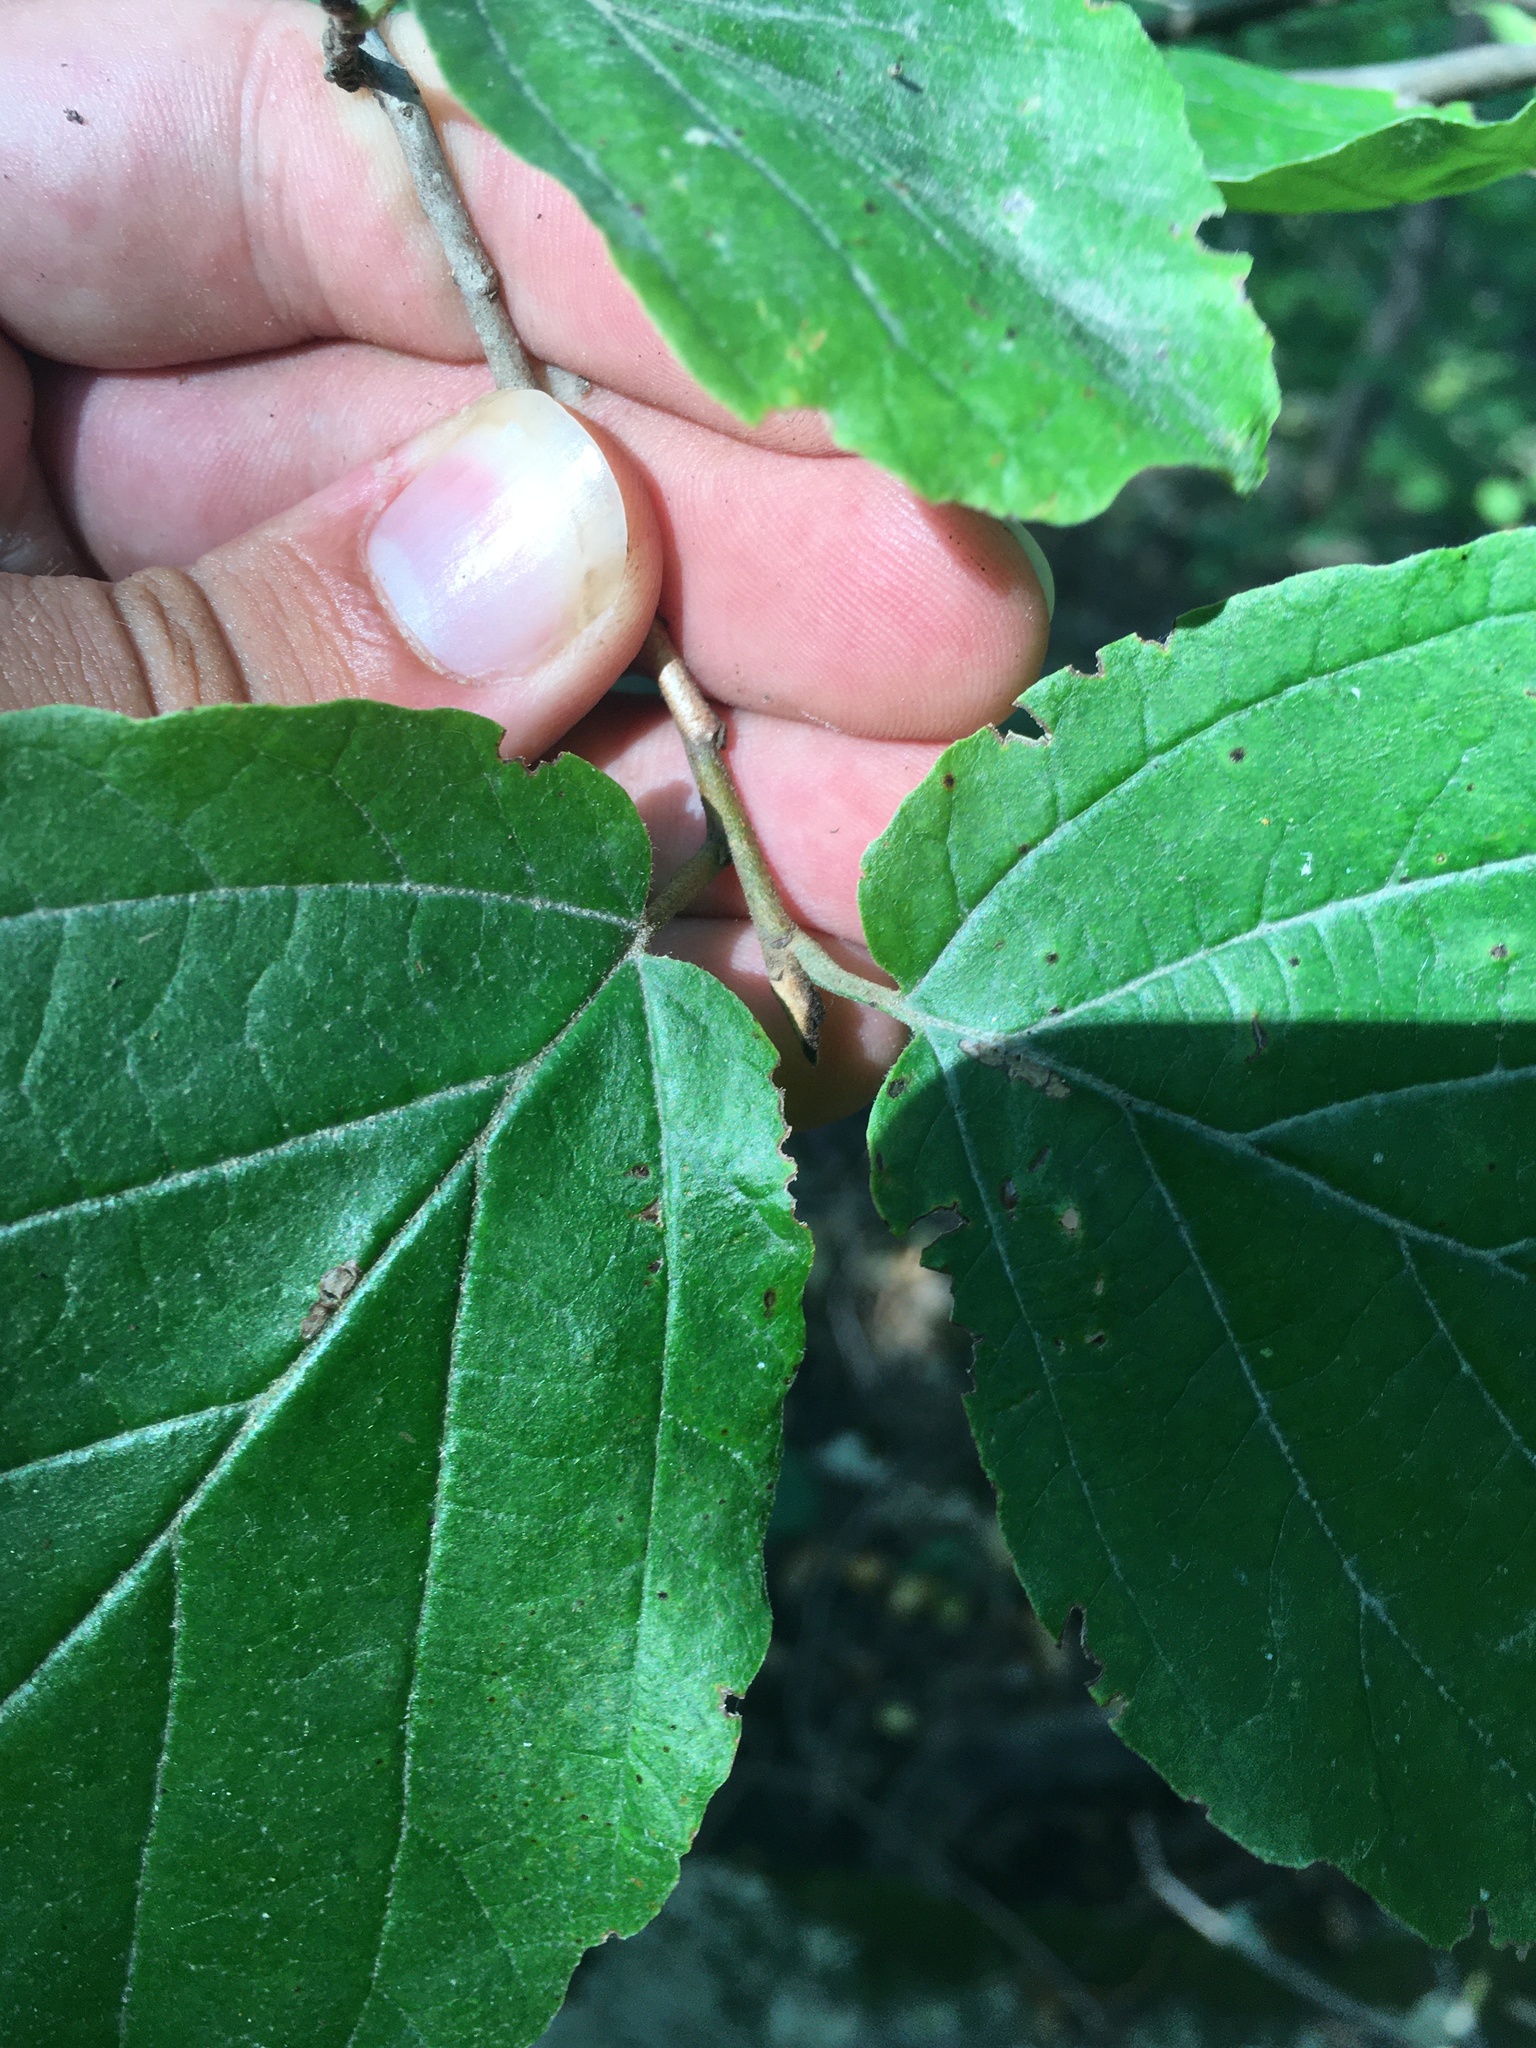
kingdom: Plantae
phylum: Tracheophyta
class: Magnoliopsida
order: Saxifragales
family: Hamamelidaceae
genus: Hamamelis
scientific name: Hamamelis virginiana
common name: Witch-hazel
